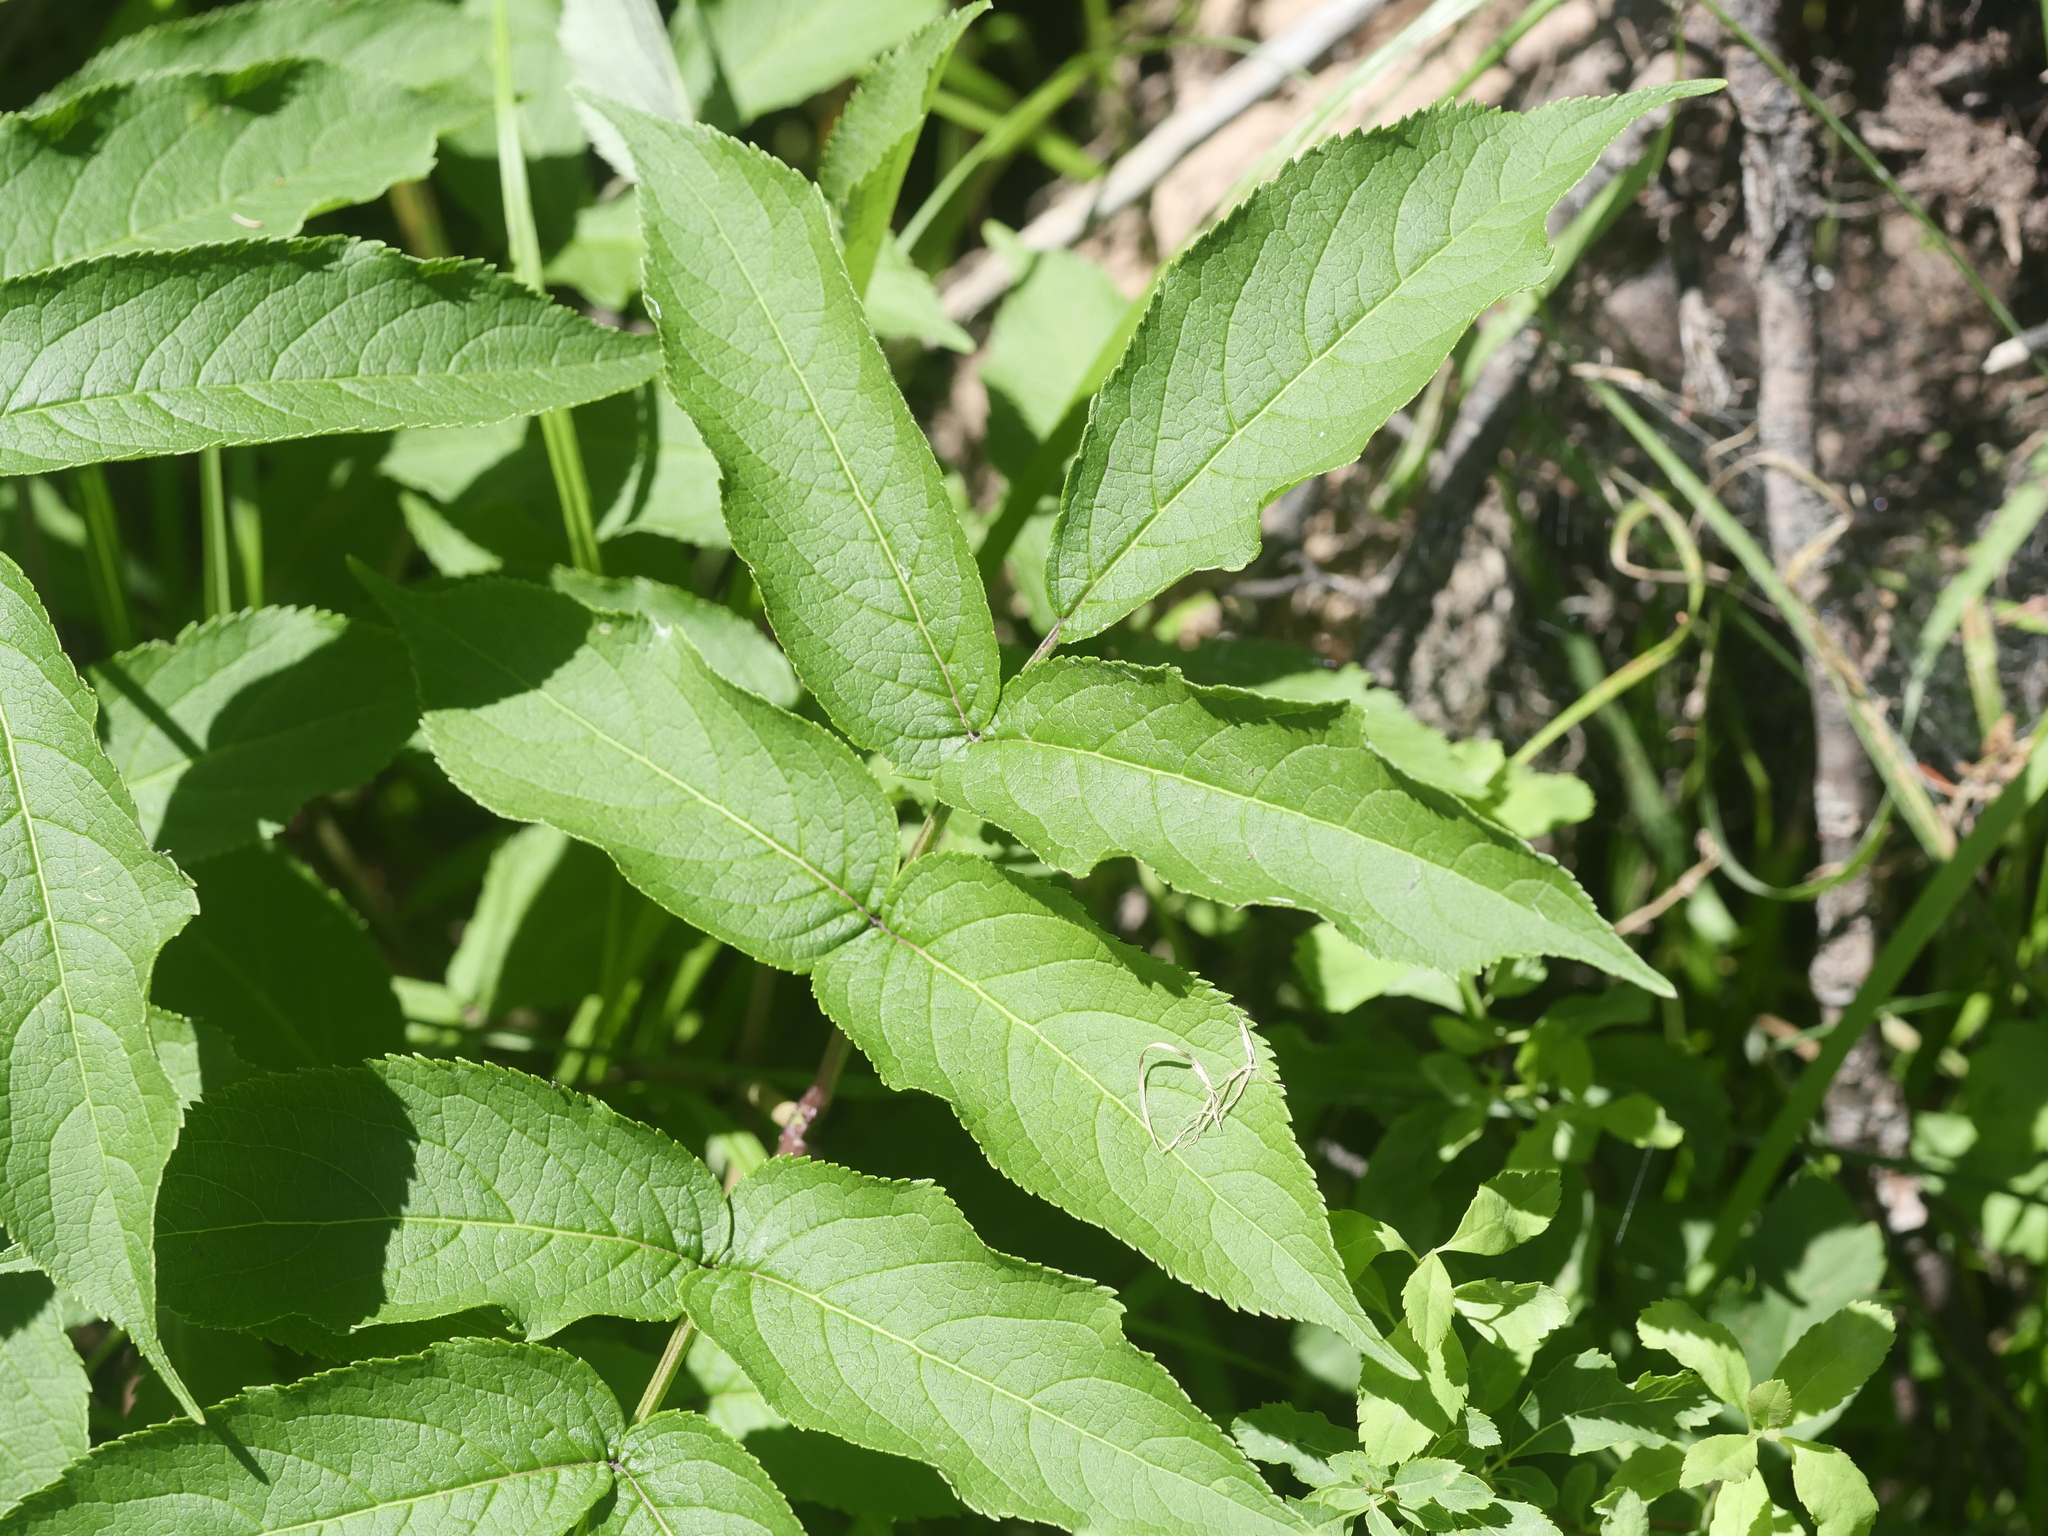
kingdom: Plantae
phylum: Tracheophyta
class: Magnoliopsida
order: Dipsacales
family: Viburnaceae
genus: Sambucus
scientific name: Sambucus racemosa
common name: Red-berried elder
